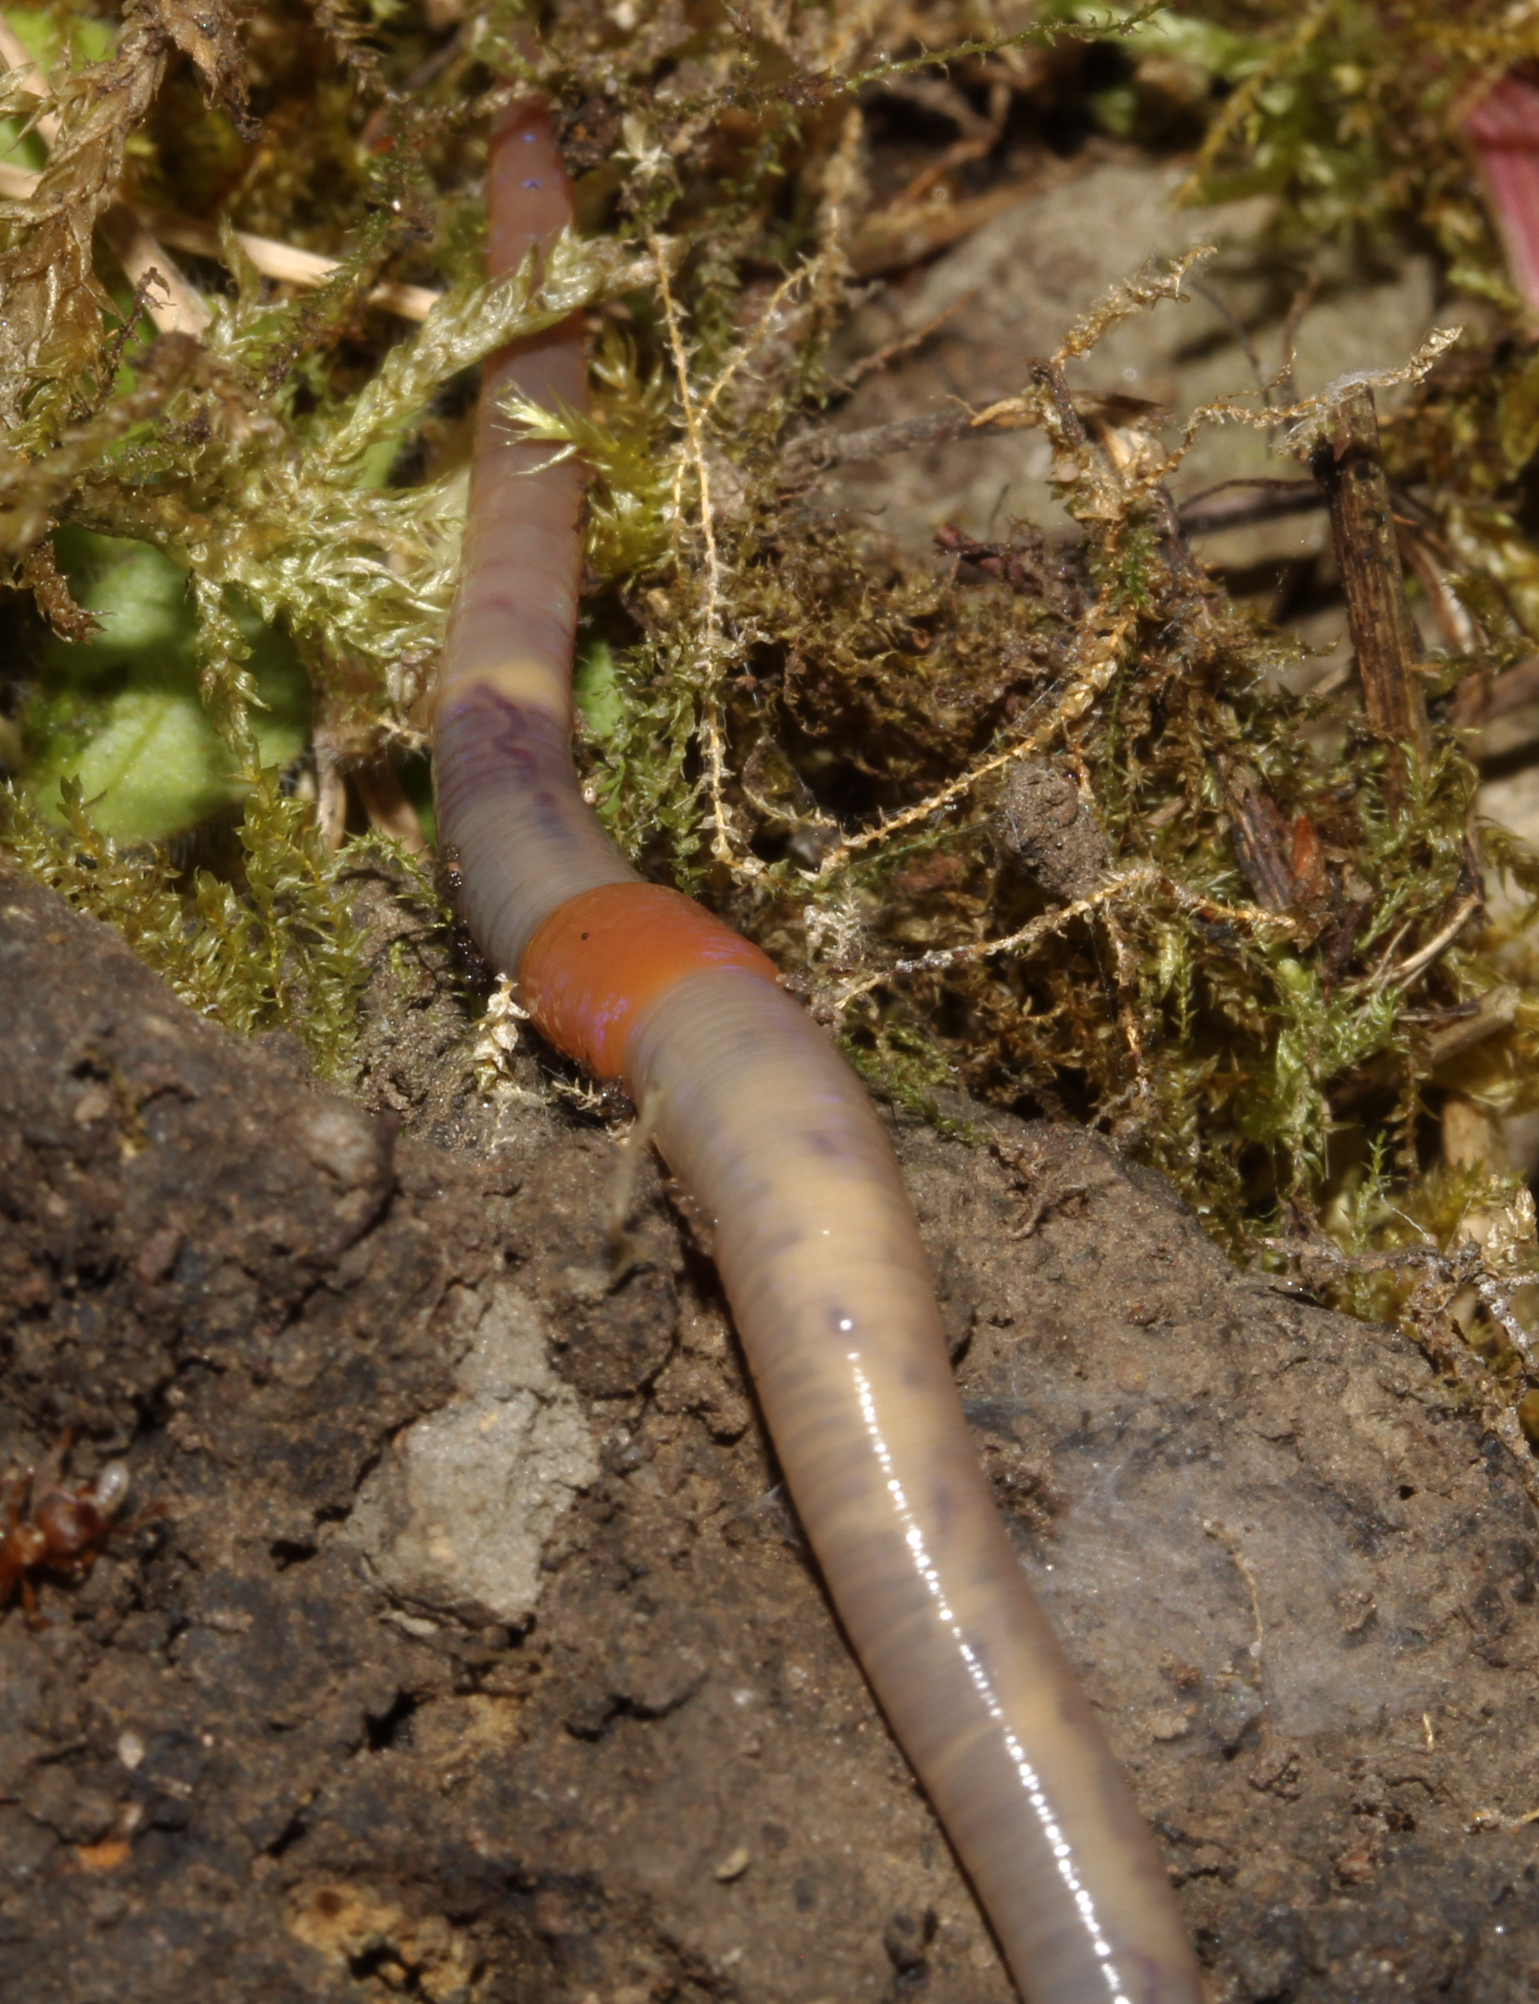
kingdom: Animalia
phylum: Annelida
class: Clitellata
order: Crassiclitellata
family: Lumbricidae
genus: Octolasion
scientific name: Octolasion
